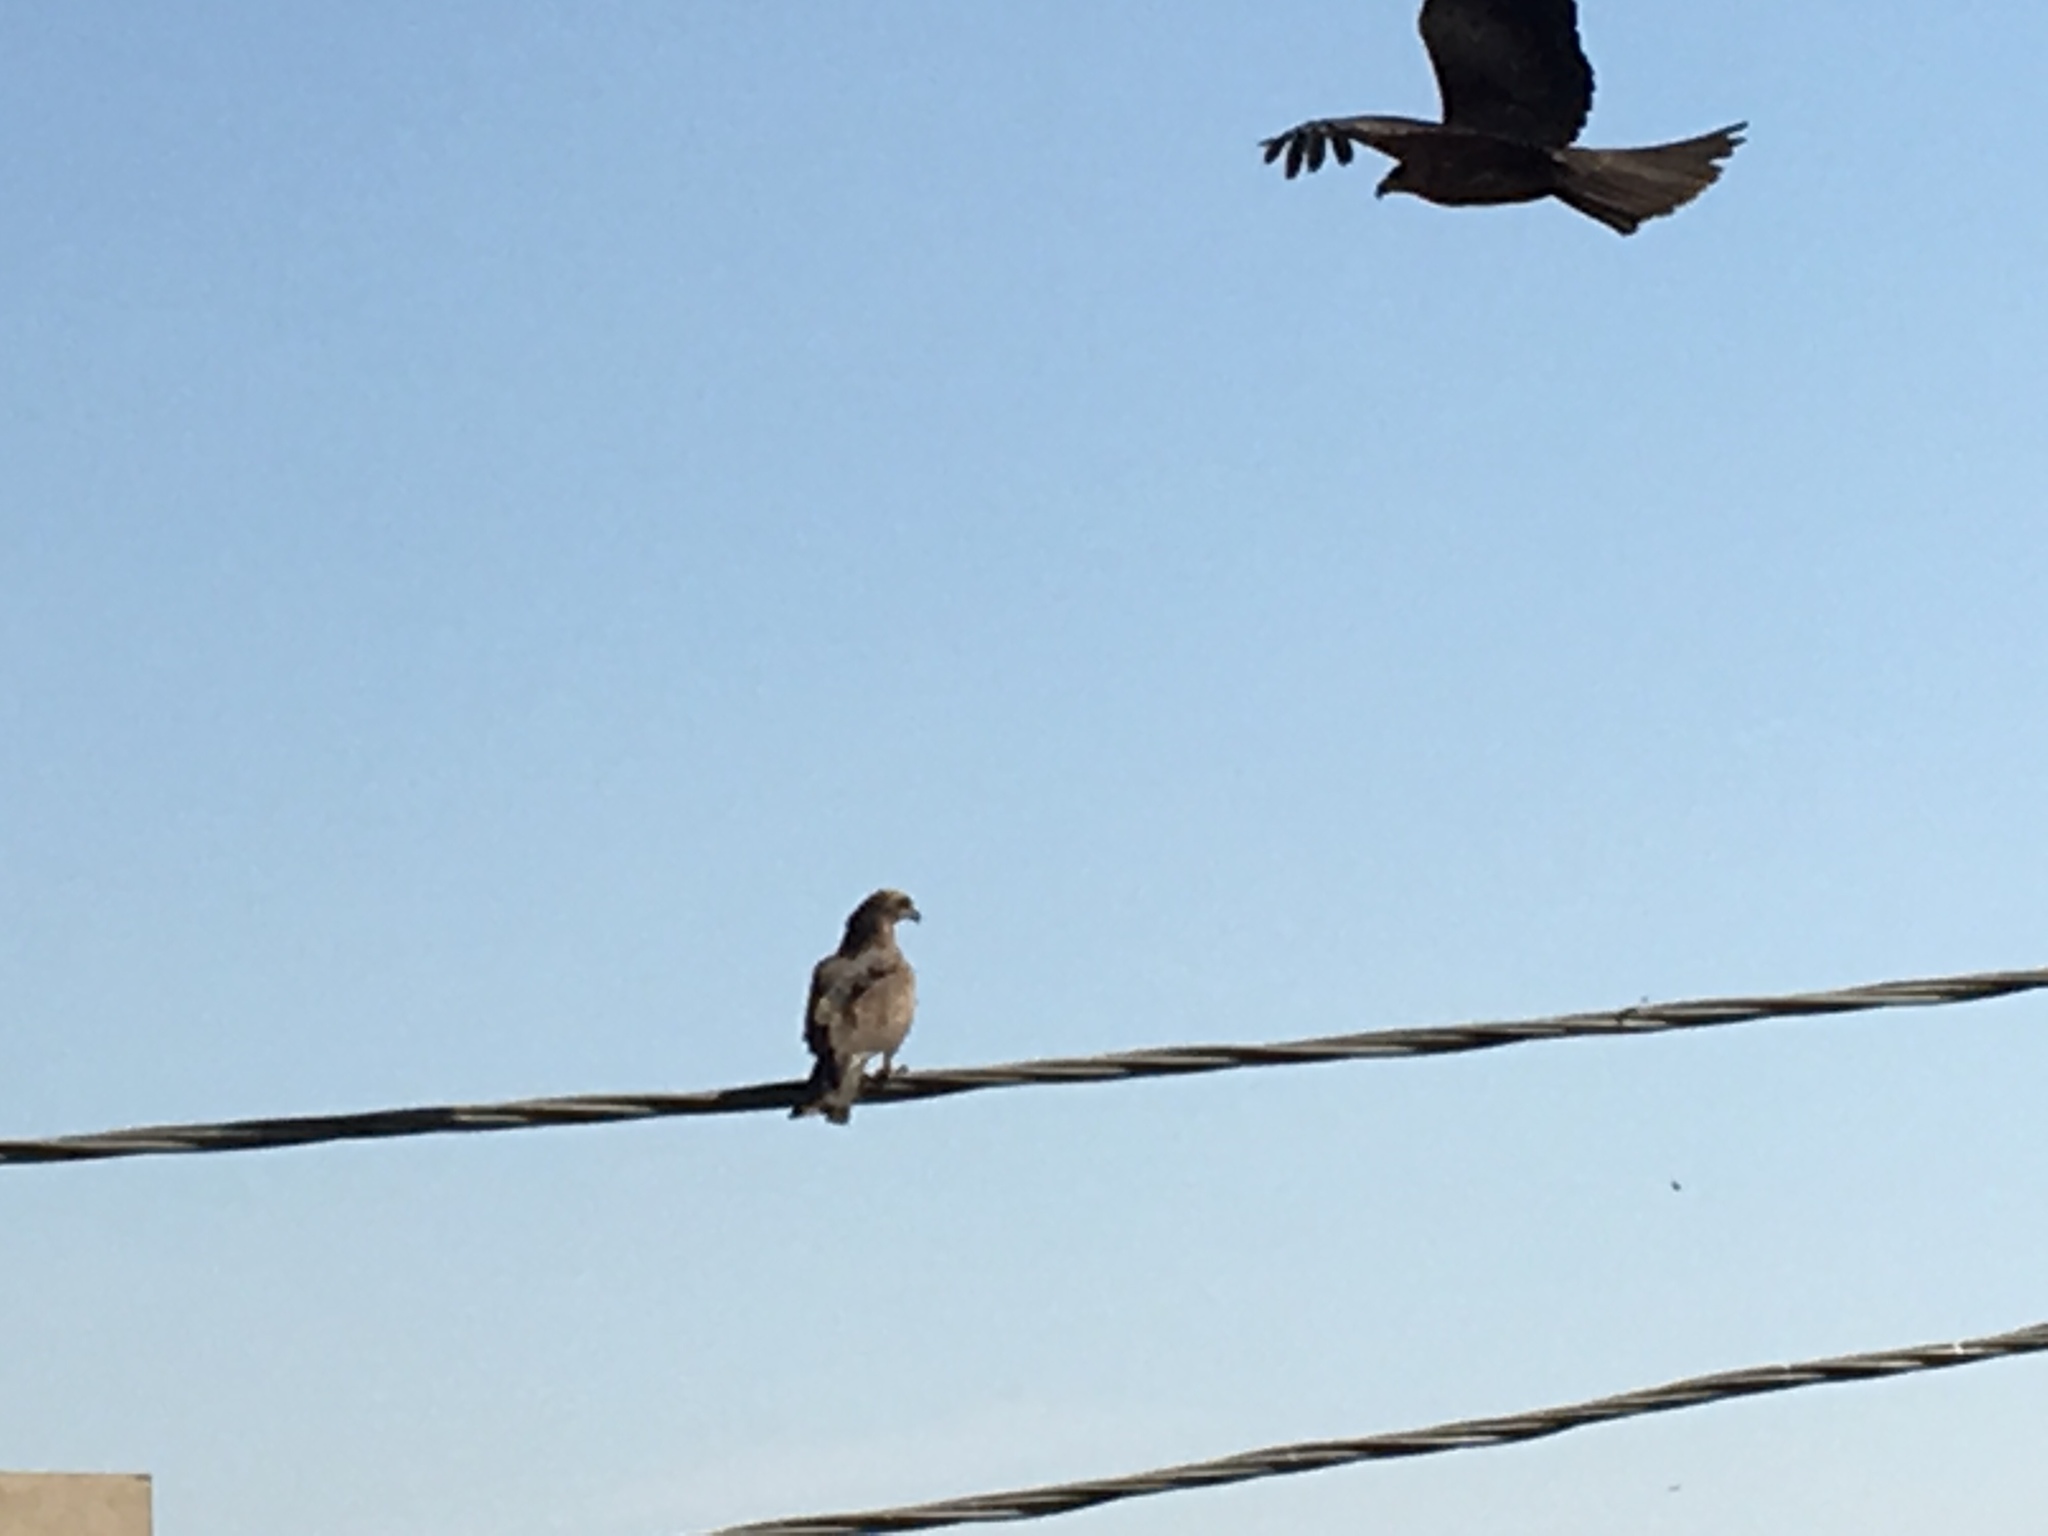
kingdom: Animalia
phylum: Chordata
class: Aves
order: Accipitriformes
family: Accipitridae
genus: Milvus
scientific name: Milvus migrans
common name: Black kite
